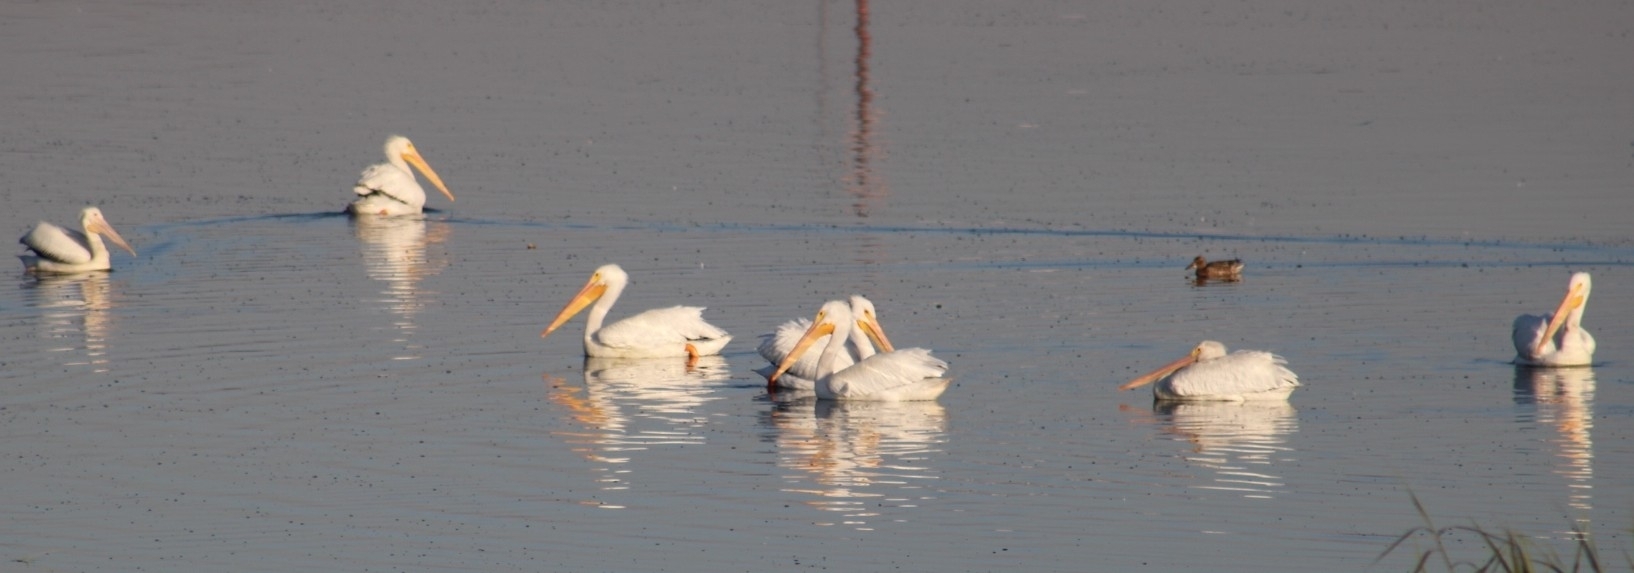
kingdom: Animalia
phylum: Chordata
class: Aves
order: Pelecaniformes
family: Pelecanidae
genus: Pelecanus
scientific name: Pelecanus erythrorhynchos
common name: American white pelican
